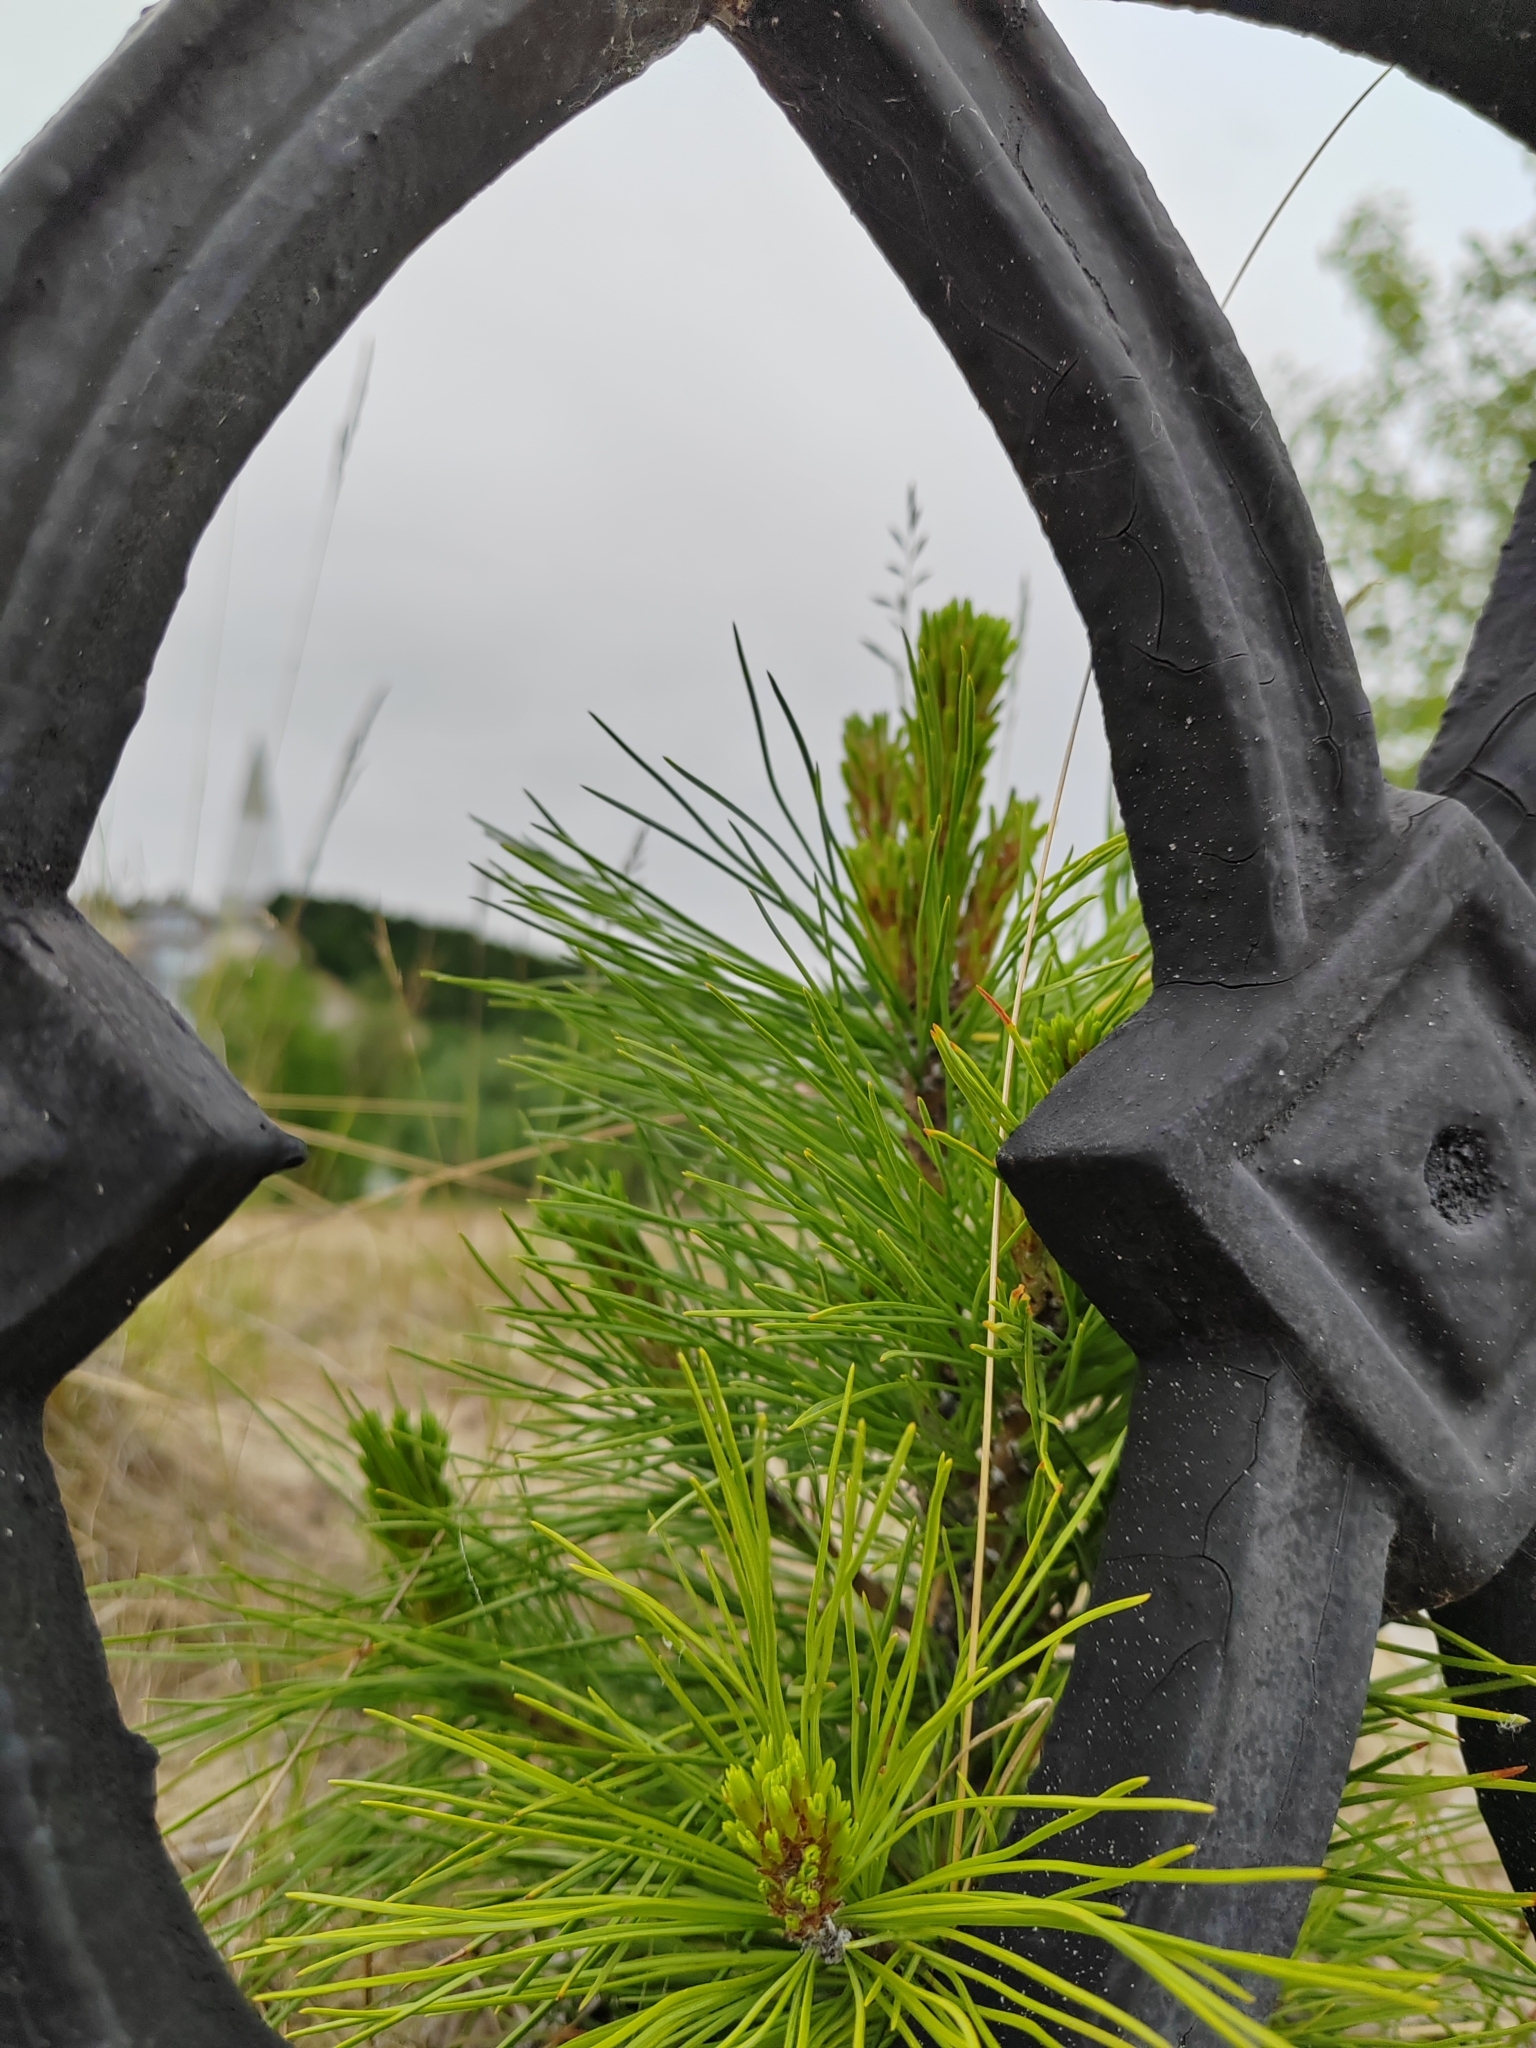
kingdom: Plantae
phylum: Tracheophyta
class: Pinopsida
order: Pinales
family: Pinaceae
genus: Pinus
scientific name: Pinus sibirica
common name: Siberian pine
